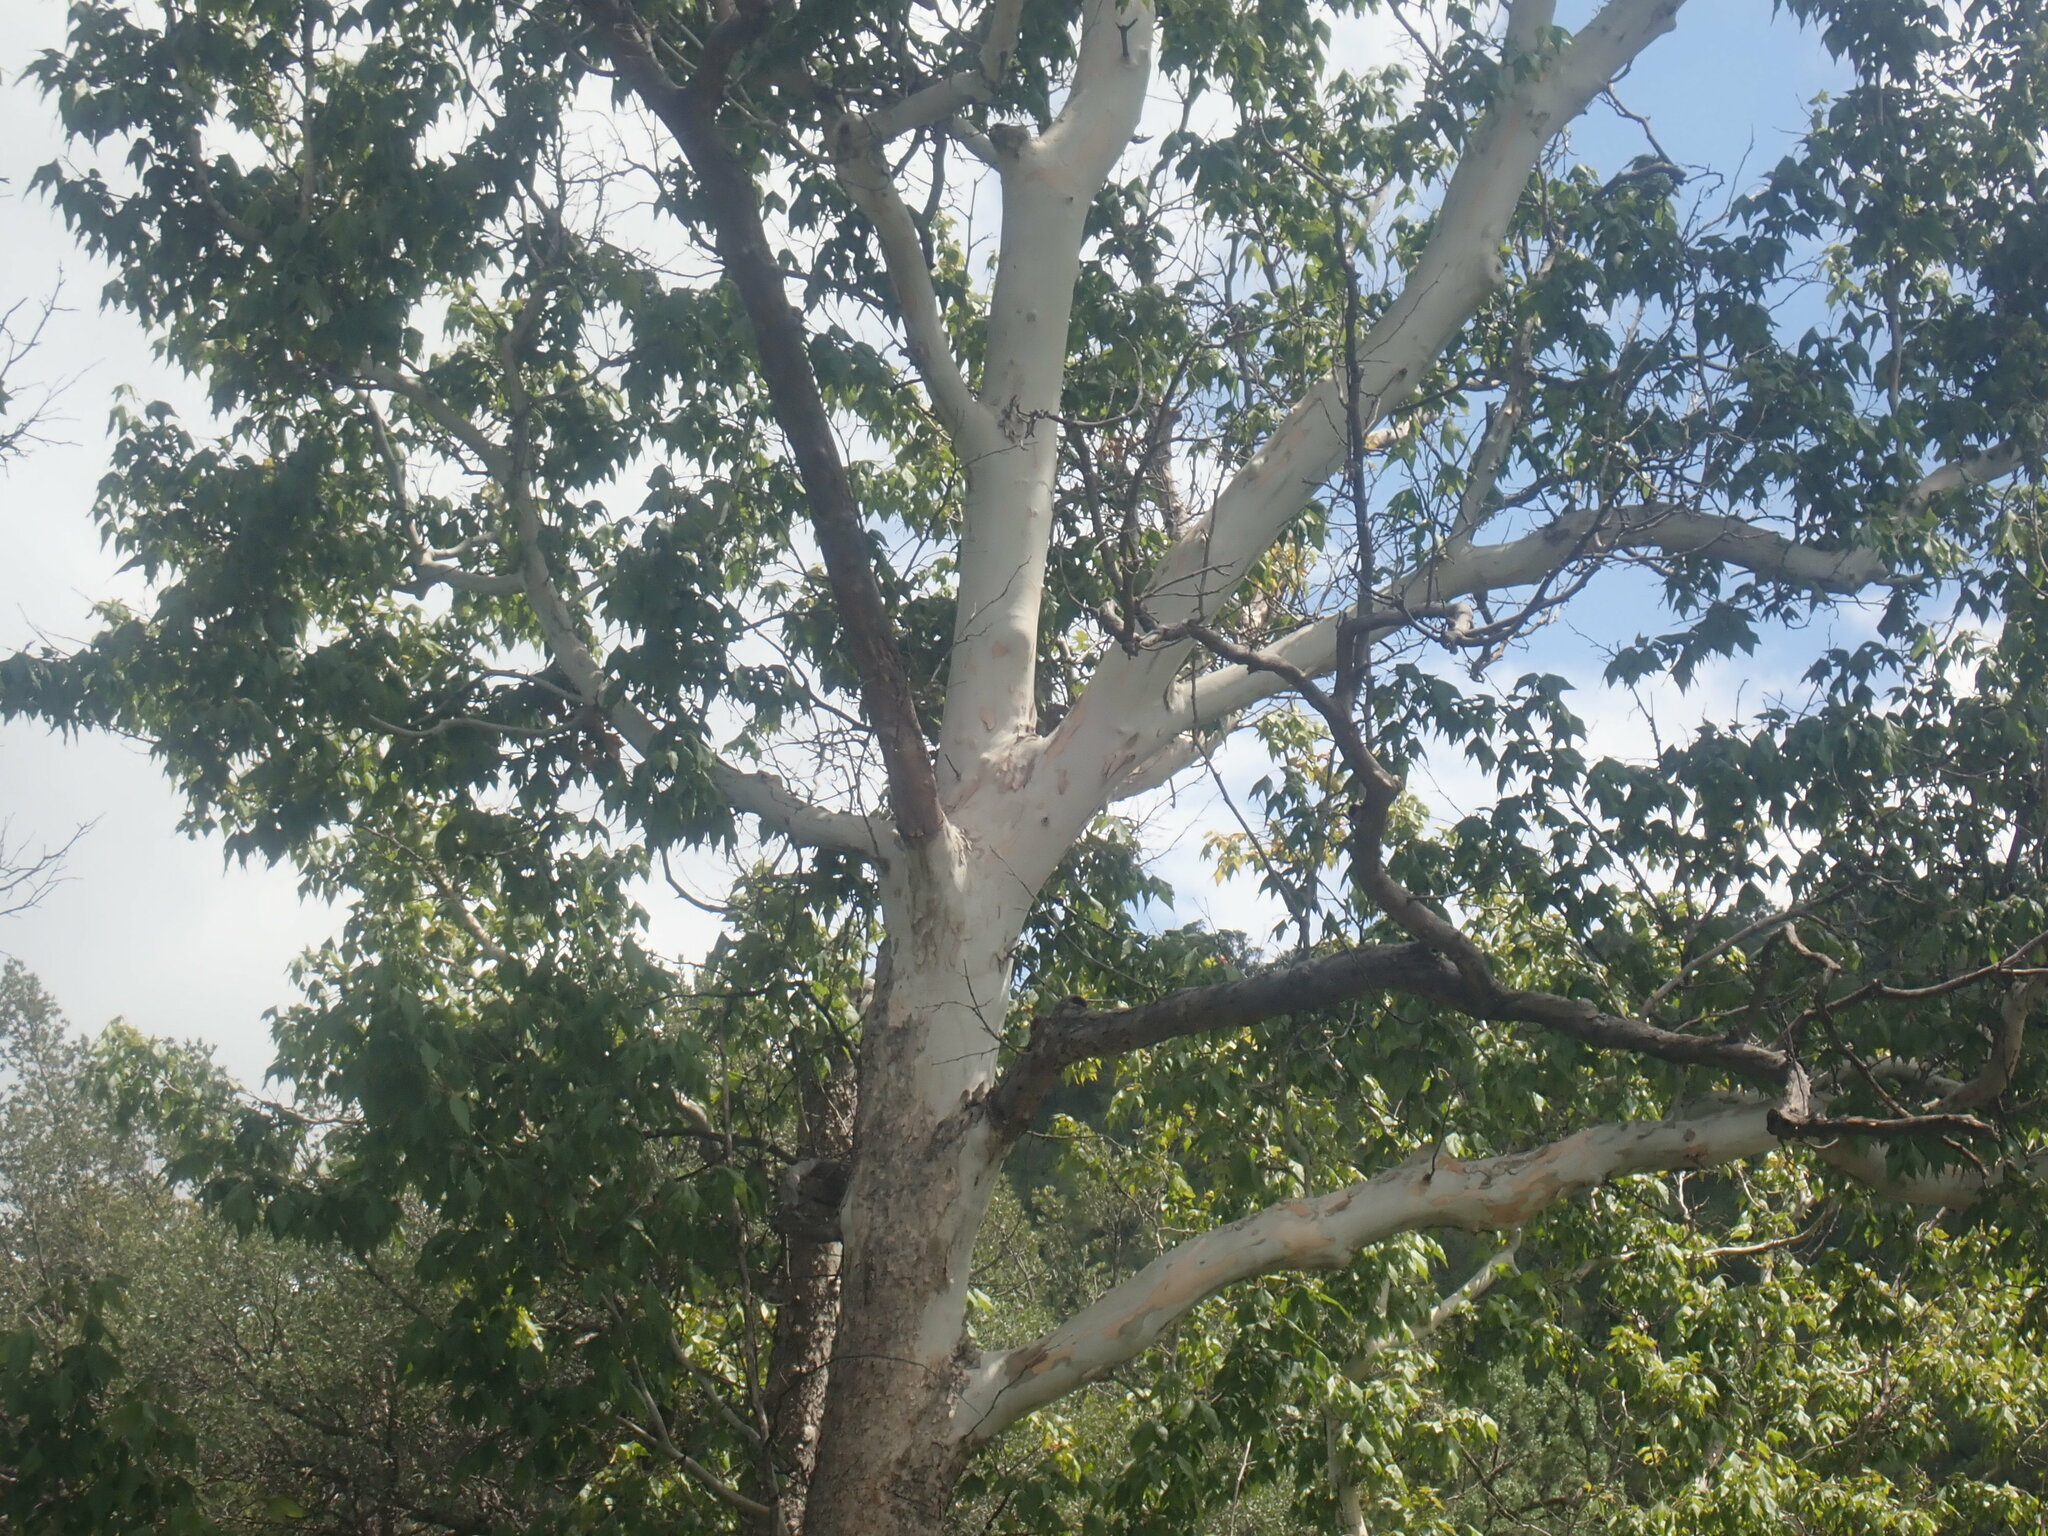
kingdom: Plantae
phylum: Tracheophyta
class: Magnoliopsida
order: Proteales
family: Platanaceae
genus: Platanus
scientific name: Platanus wrightii
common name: Arizona sycamore
